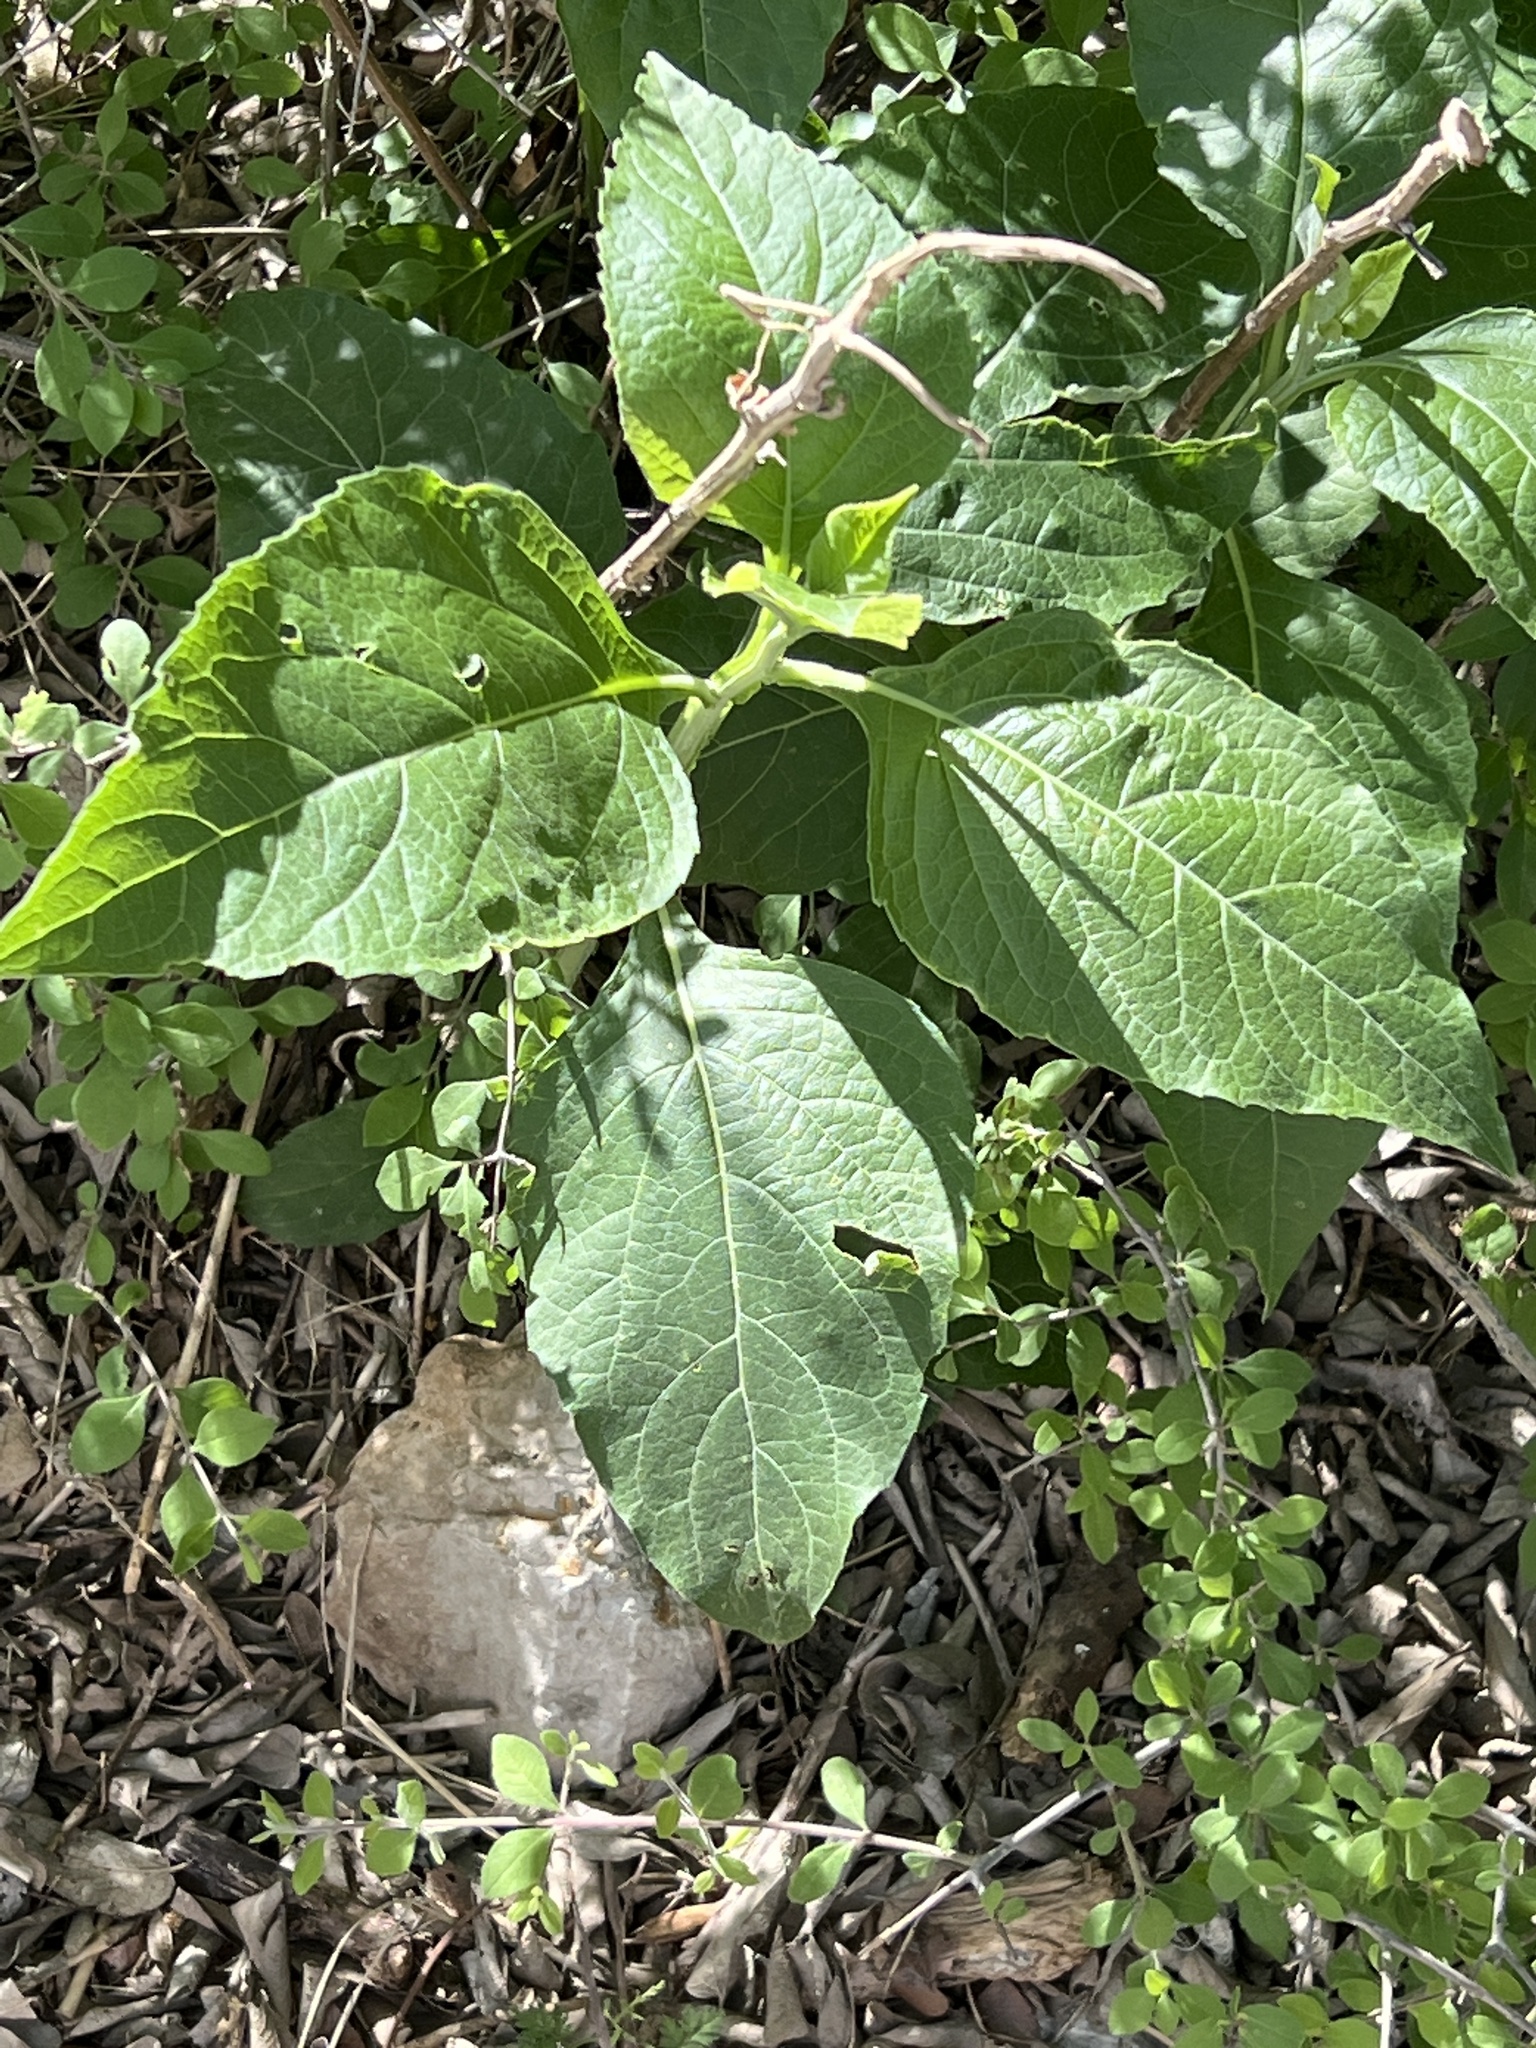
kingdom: Plantae
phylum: Tracheophyta
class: Magnoliopsida
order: Asterales
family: Asteraceae
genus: Verbesina
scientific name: Verbesina virginica
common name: Frostweed
